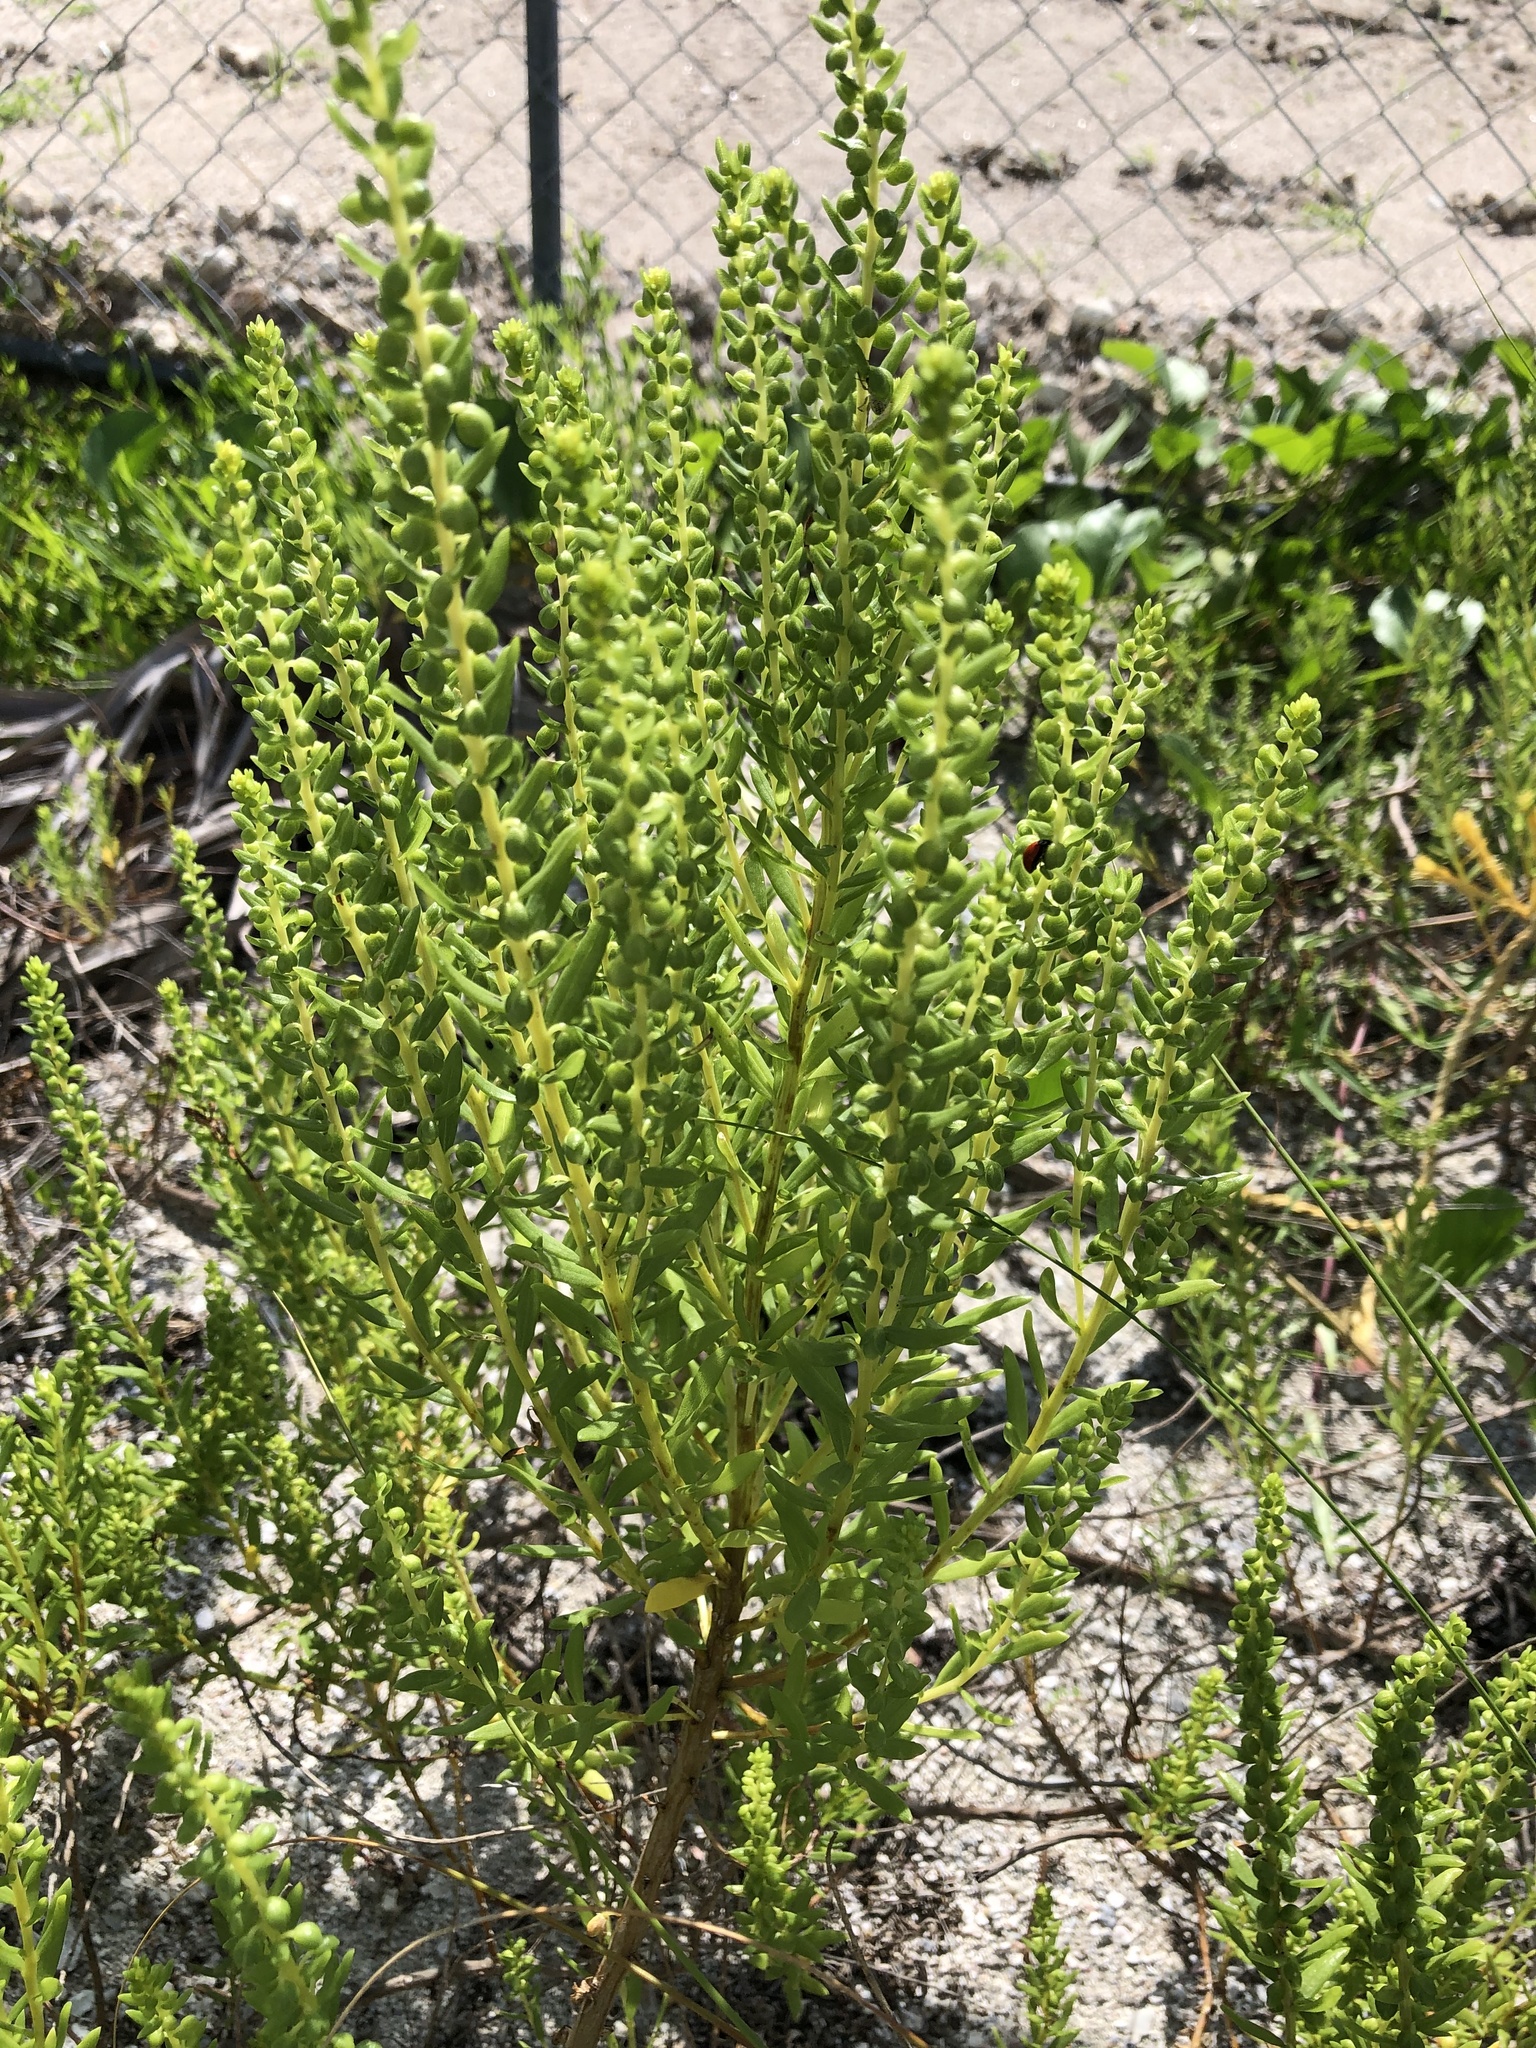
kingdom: Plantae
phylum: Tracheophyta
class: Magnoliopsida
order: Asterales
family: Asteraceae
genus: Iva
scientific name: Iva imbricata
